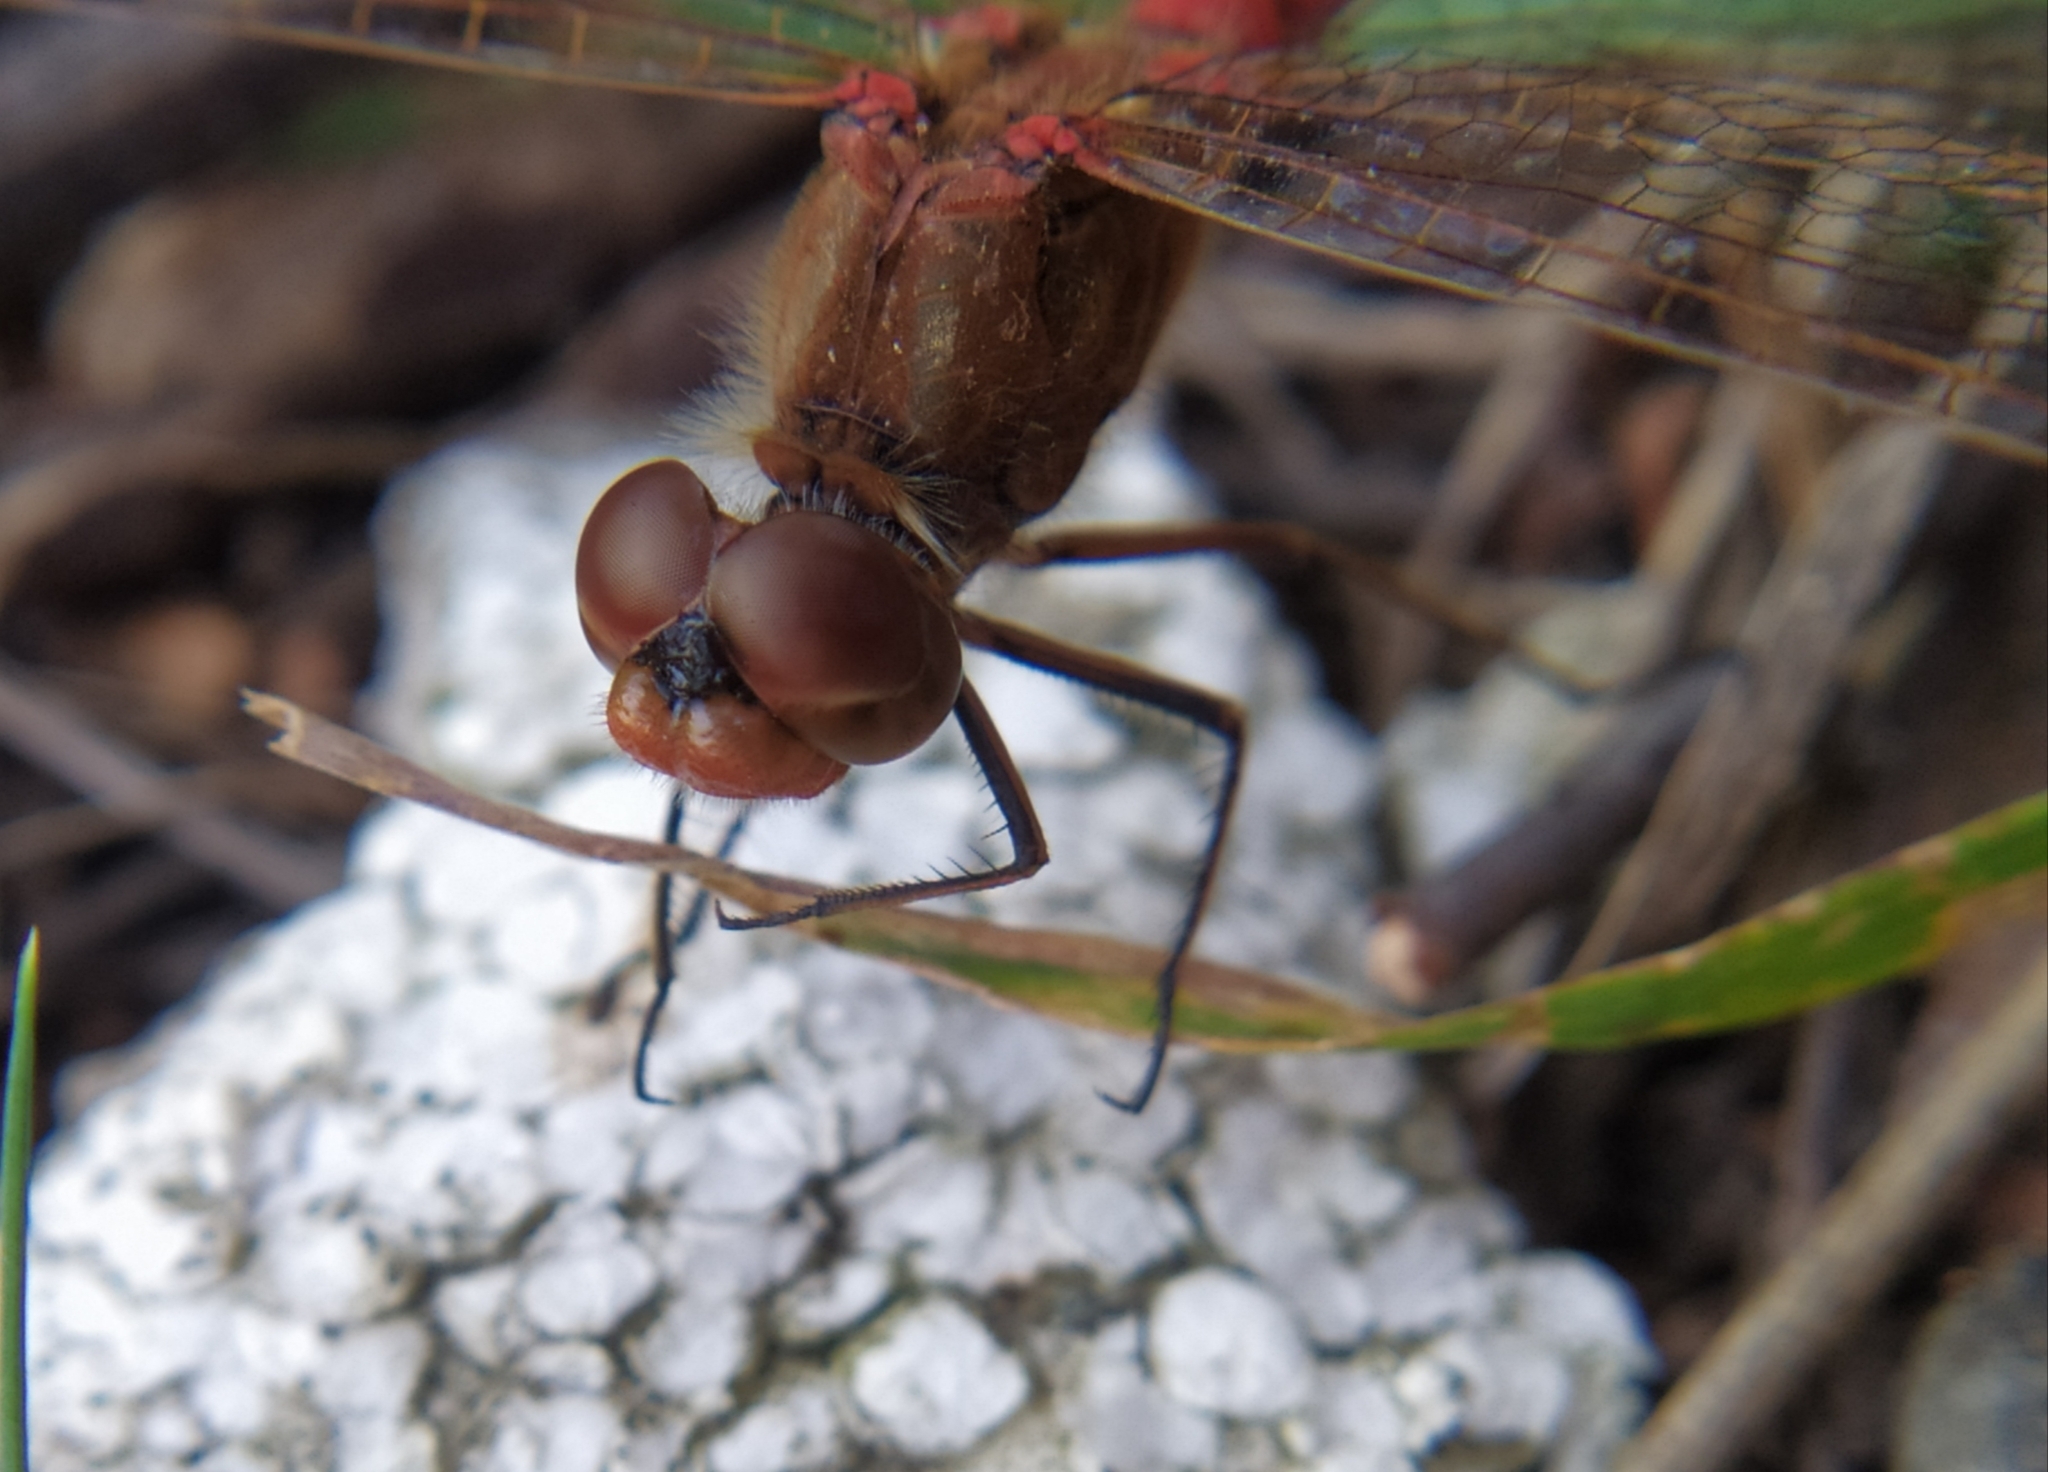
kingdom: Animalia
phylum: Arthropoda
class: Insecta
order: Odonata
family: Libellulidae
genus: Sympetrum
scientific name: Sympetrum meridionale
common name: Southern darter
